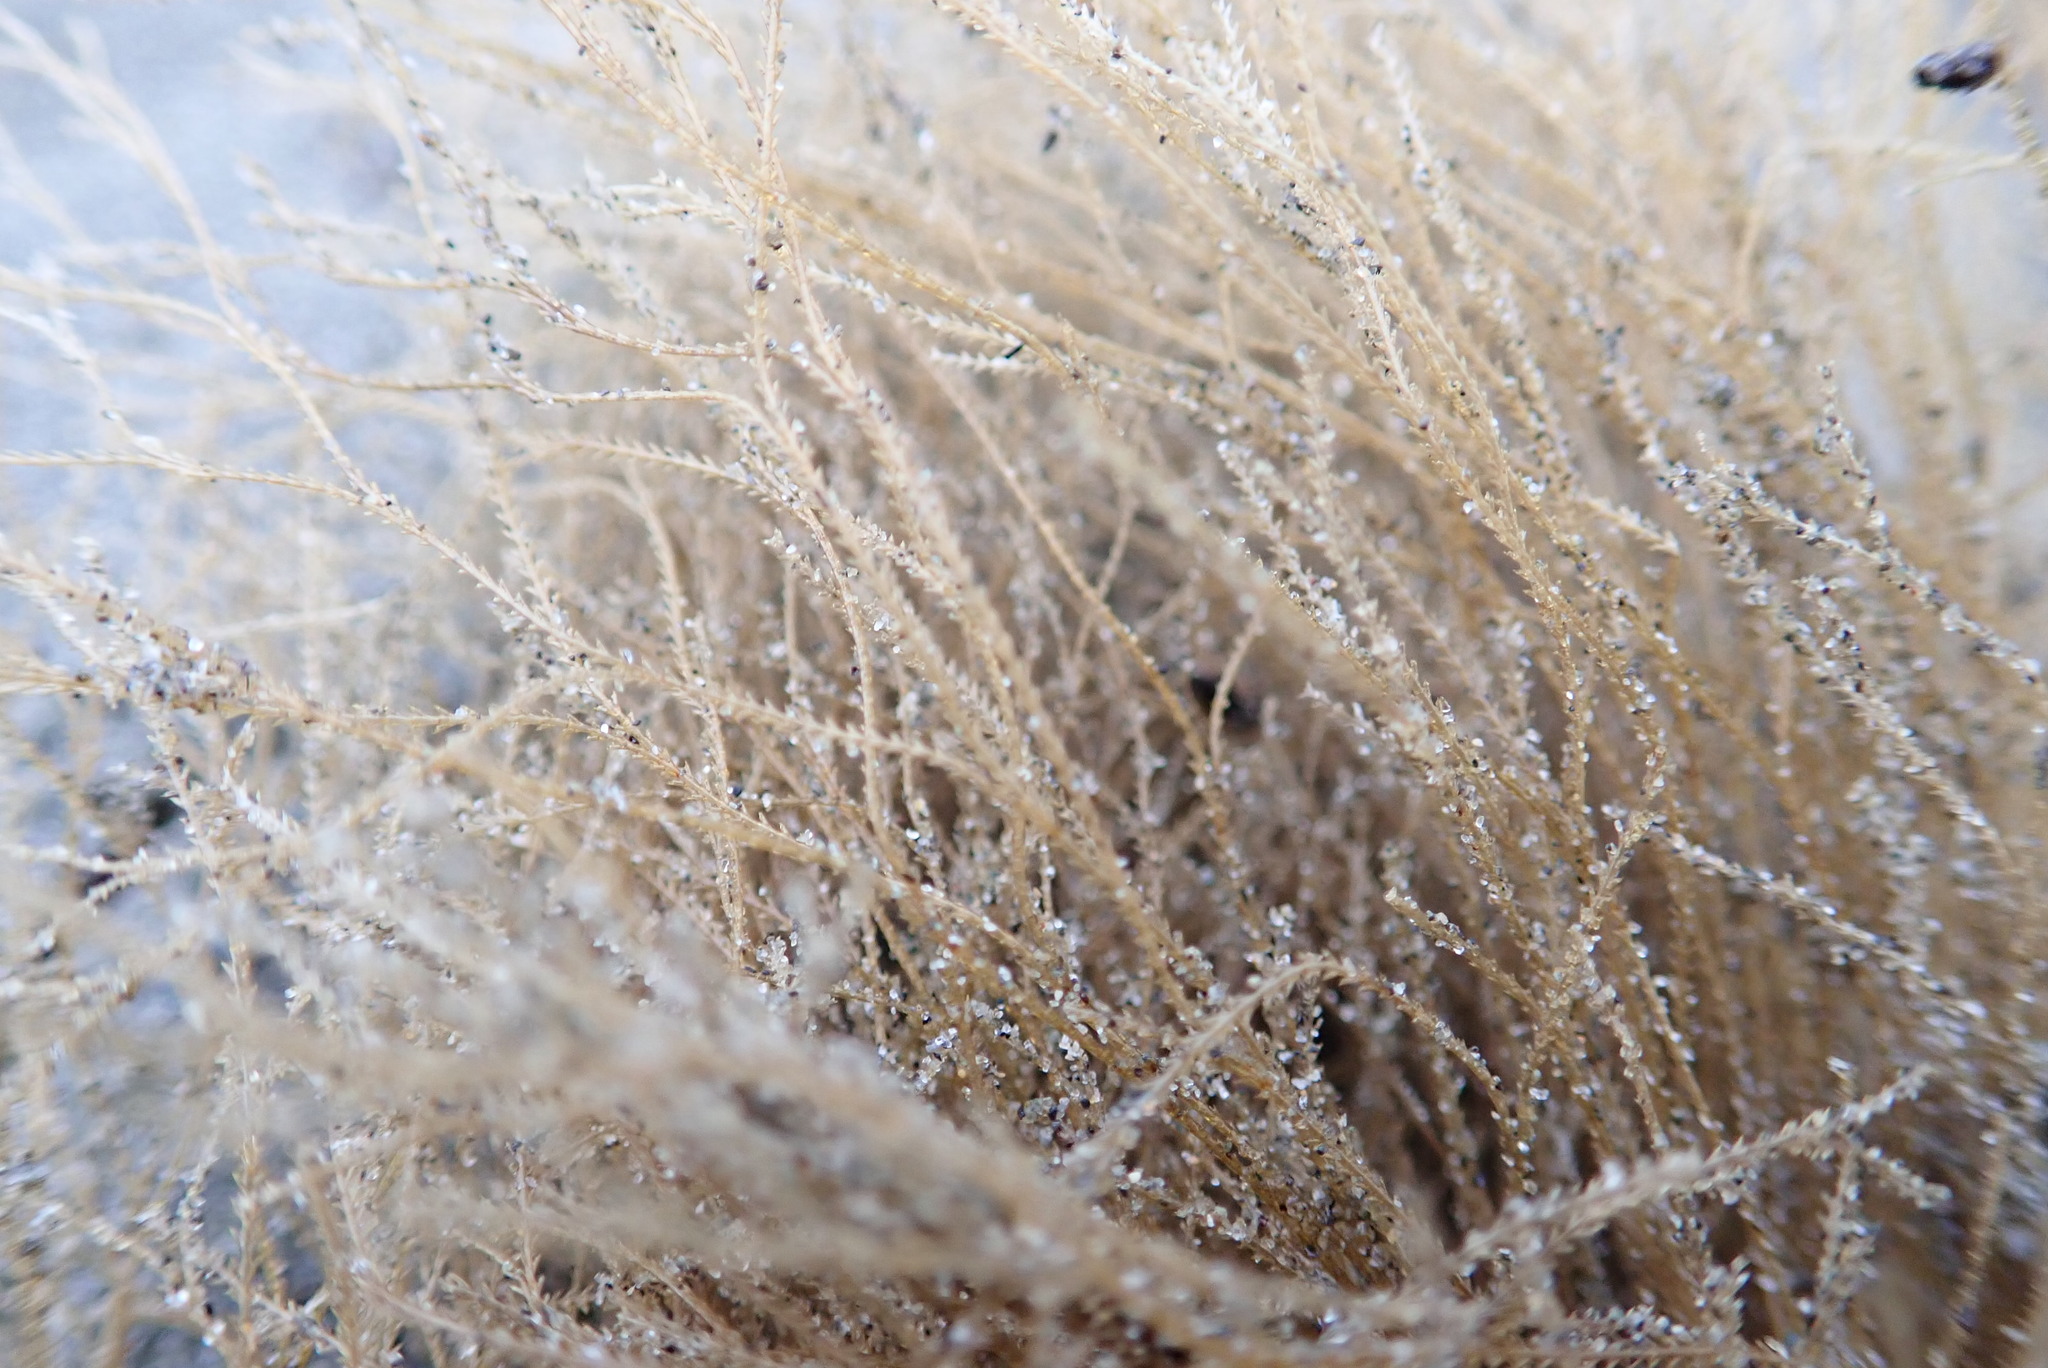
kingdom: Animalia
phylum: Cnidaria
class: Hydrozoa
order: Leptothecata
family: Sertulariidae
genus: Amphisbetia
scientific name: Amphisbetia bispinosa
